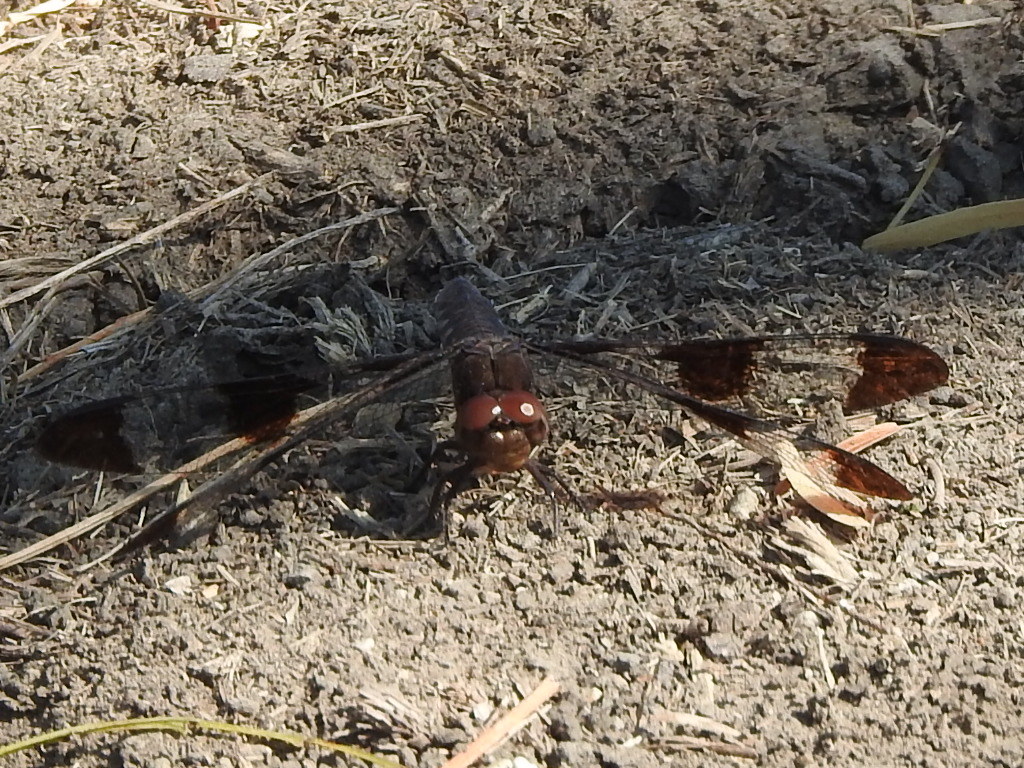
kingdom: Animalia
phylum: Arthropoda
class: Insecta
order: Odonata
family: Libellulidae
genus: Plathemis
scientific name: Plathemis lydia
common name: Common whitetail
